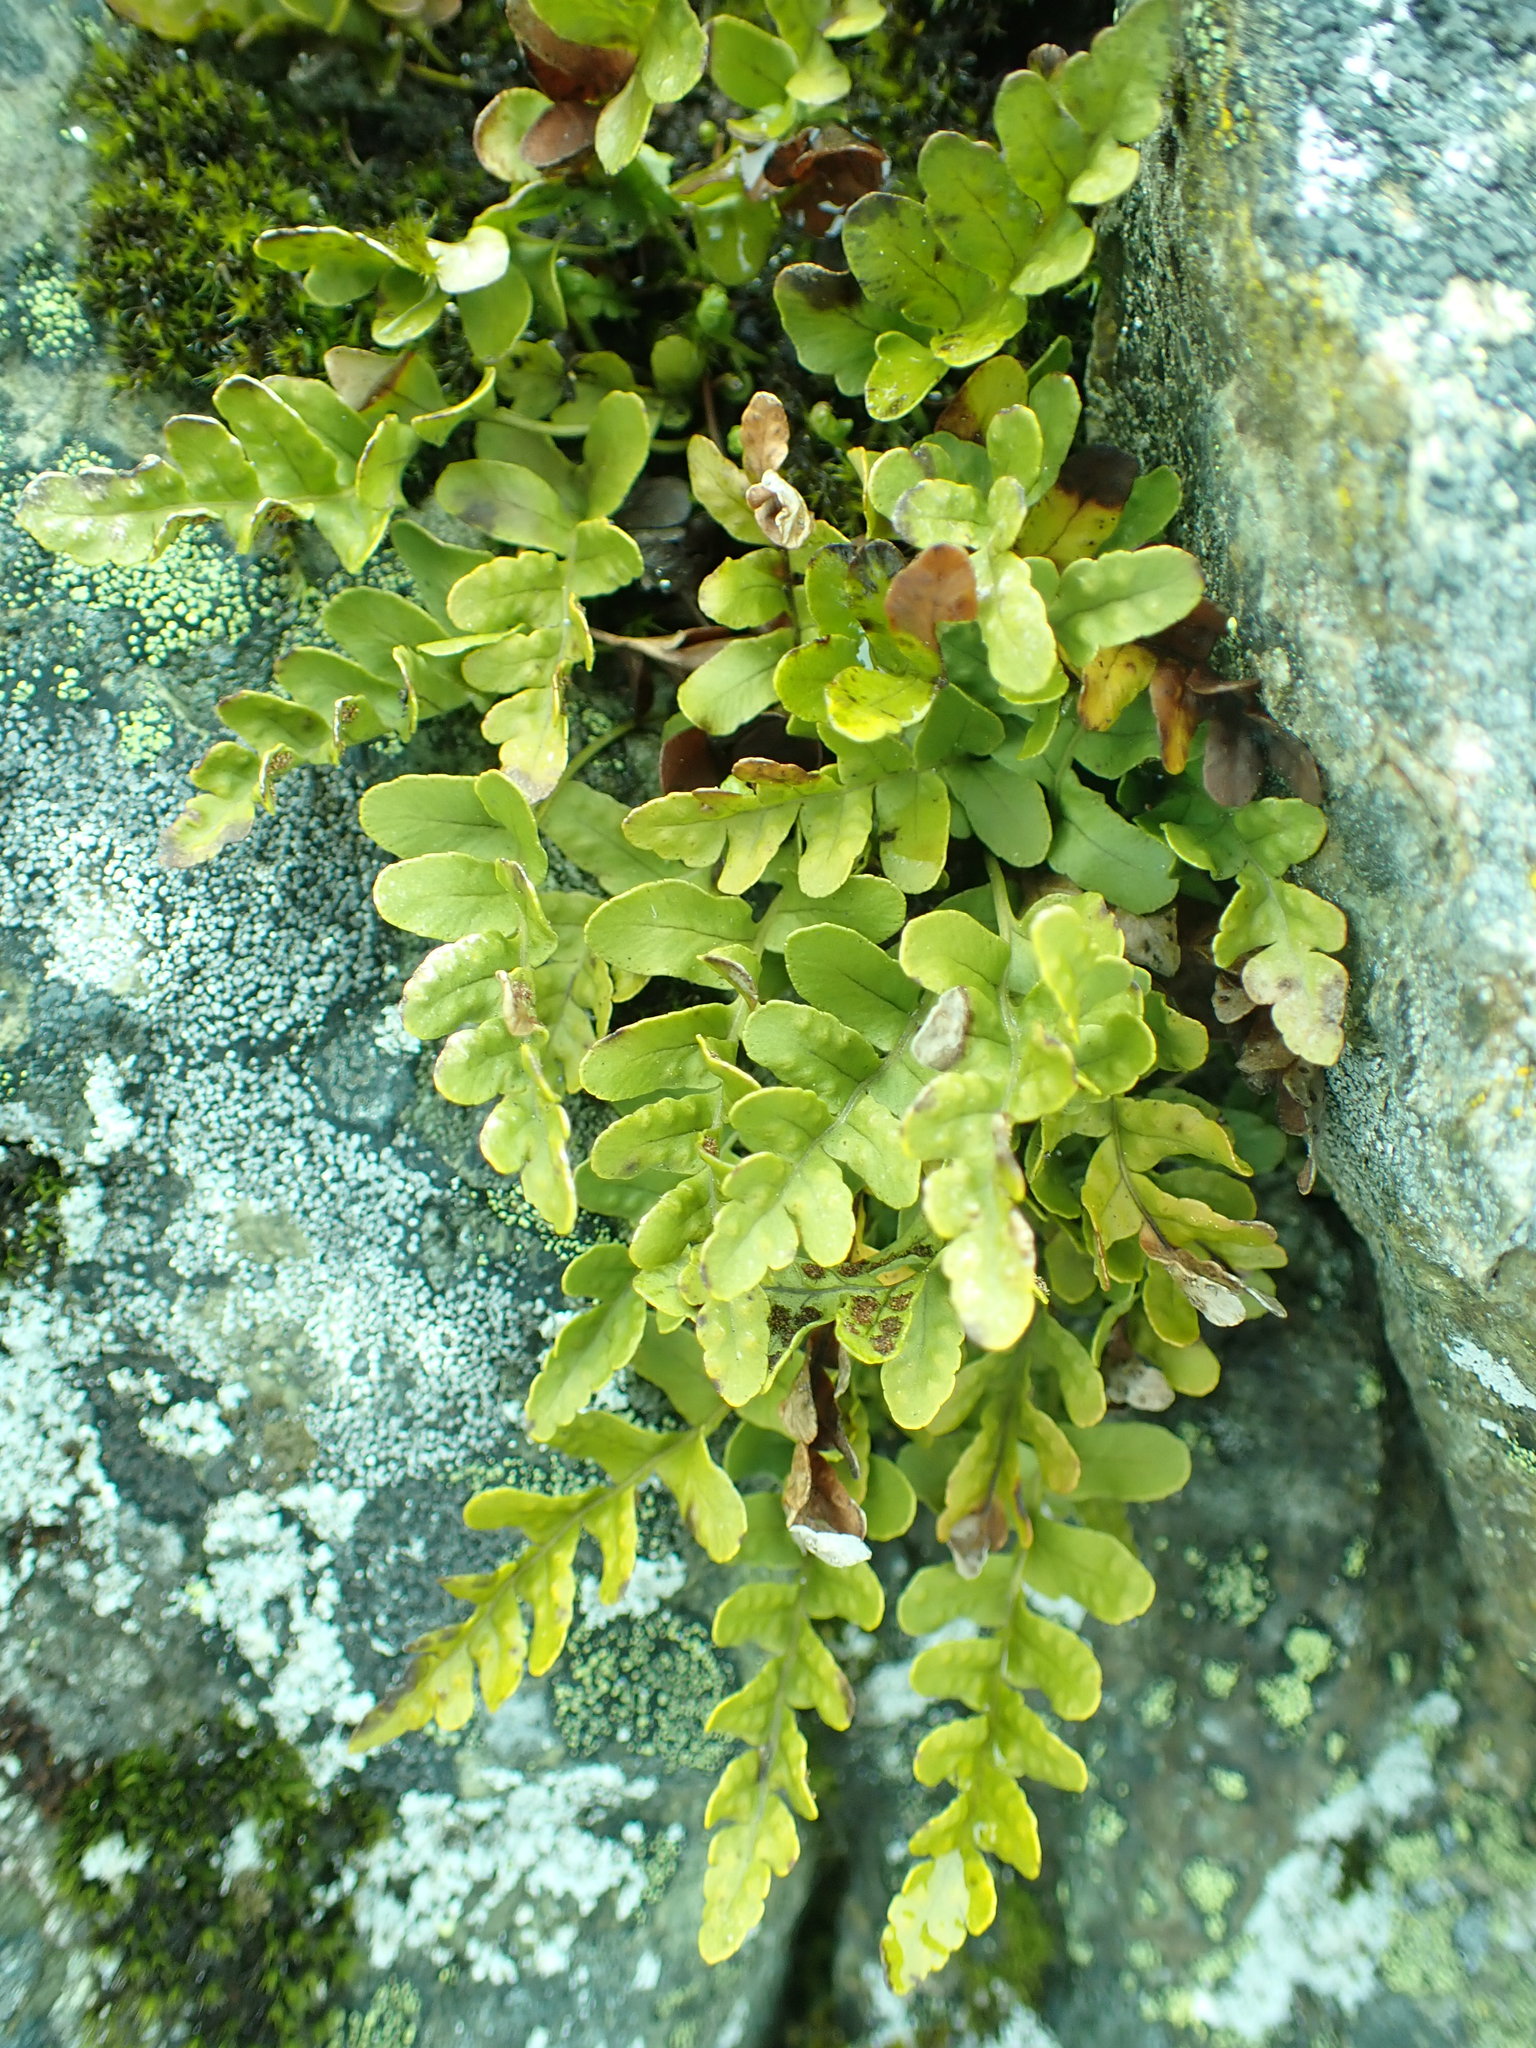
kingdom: Plantae
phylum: Tracheophyta
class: Polypodiopsida
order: Polypodiales
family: Polypodiaceae
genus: Polypodium
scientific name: Polypodium amorphum
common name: Pacific polypody
